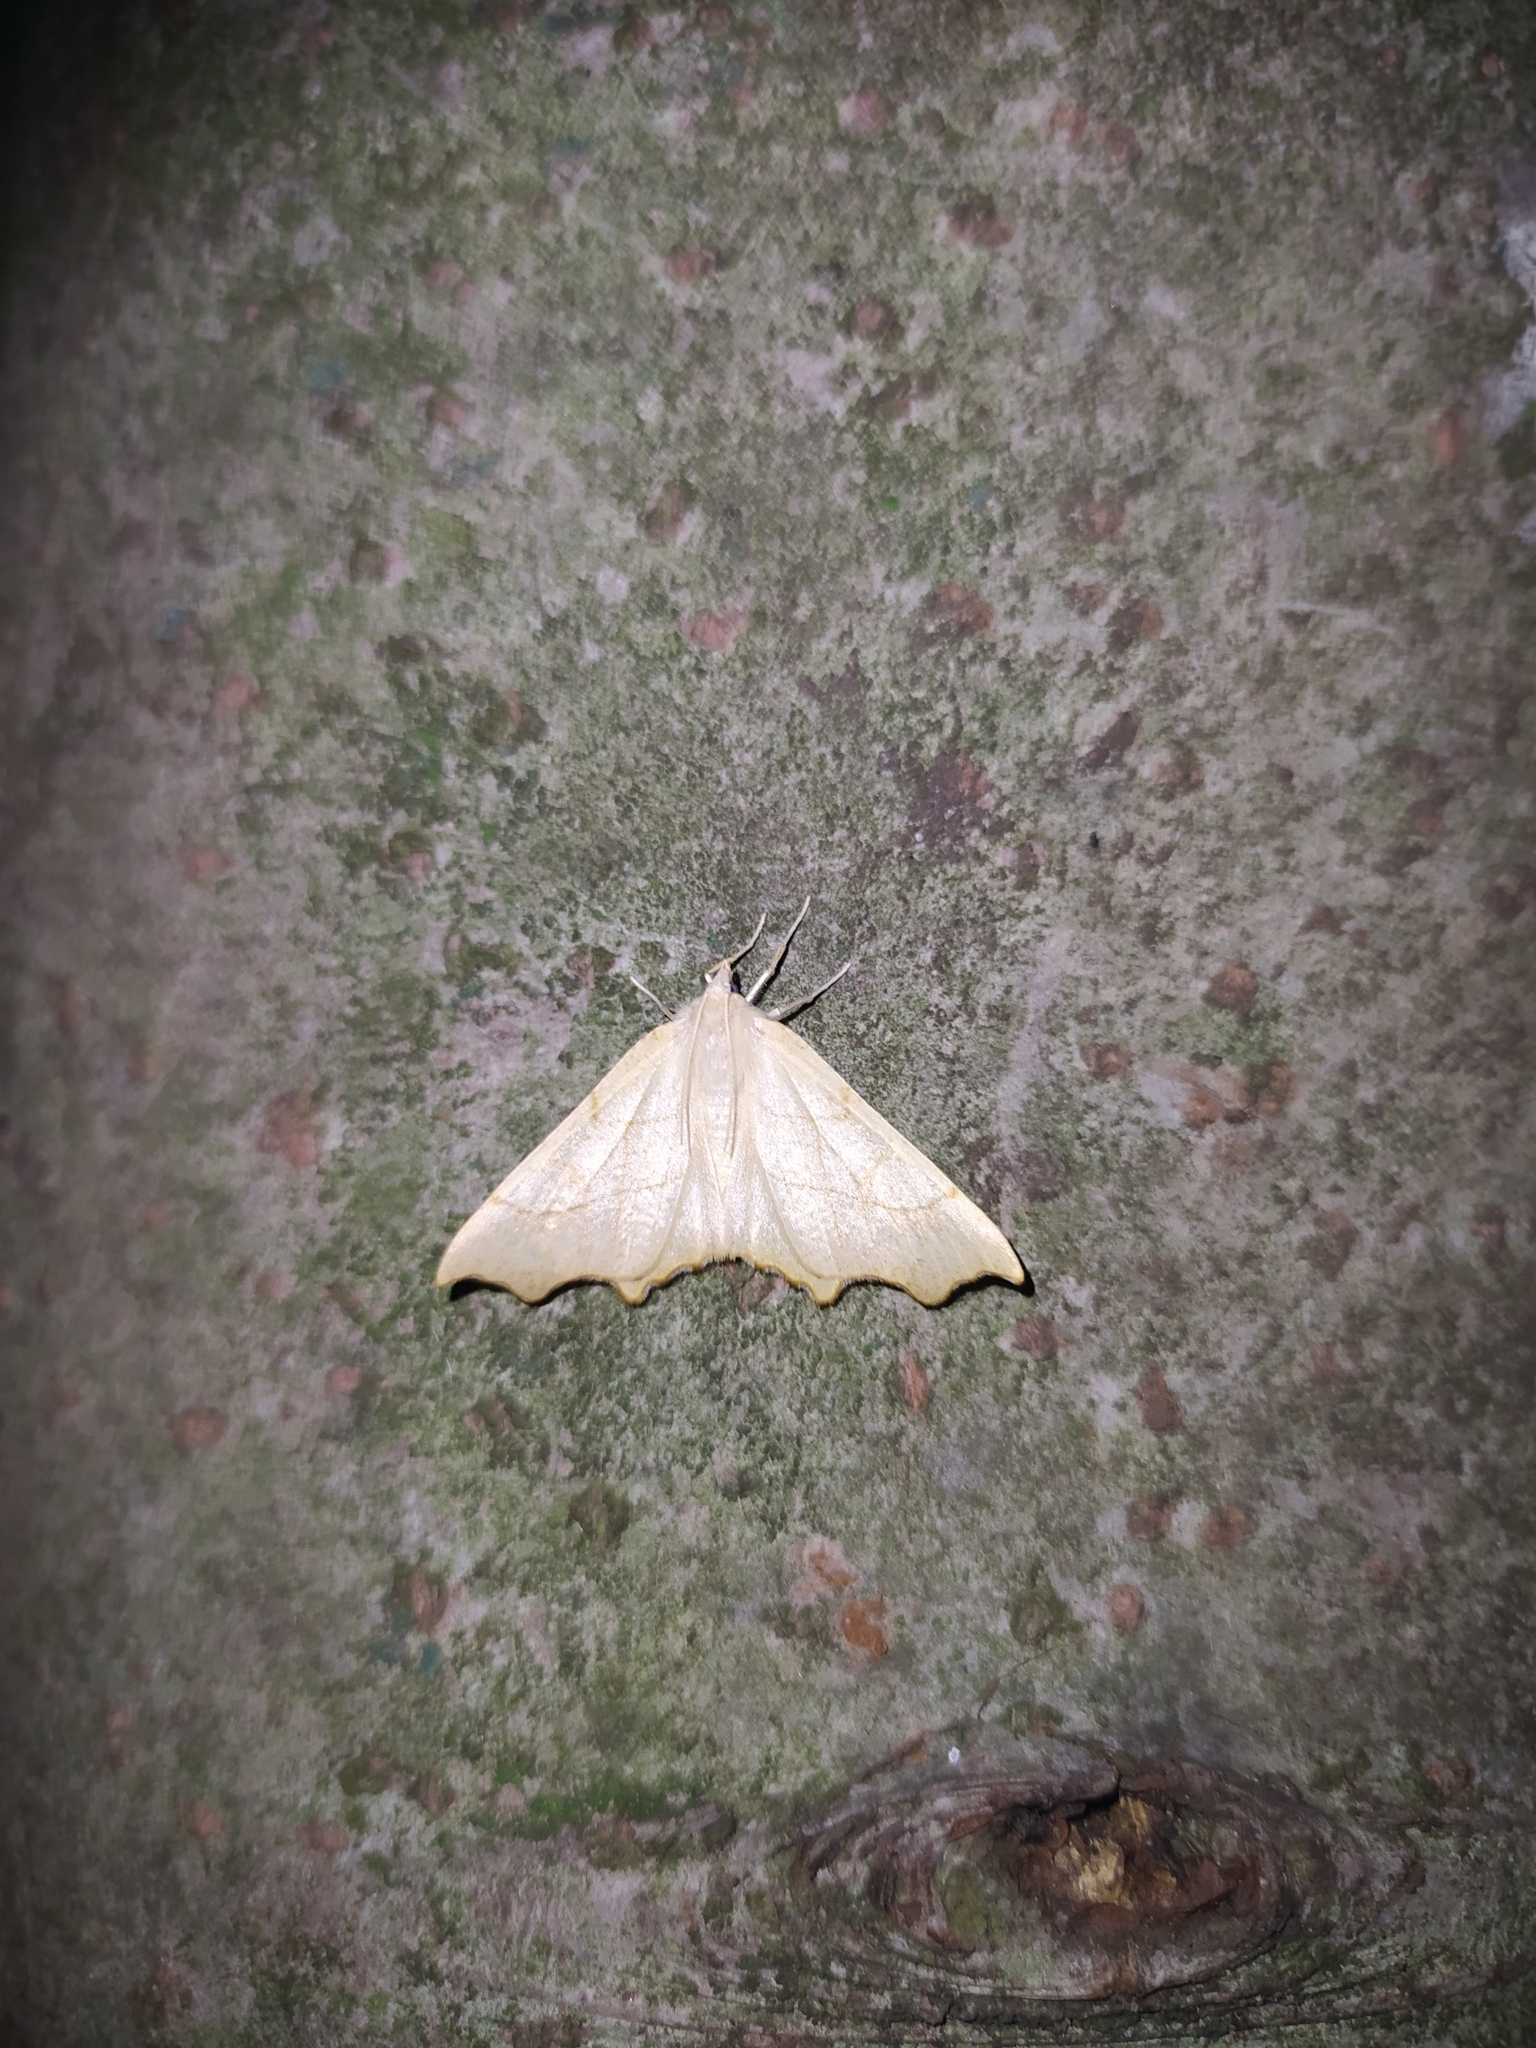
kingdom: Animalia
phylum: Arthropoda
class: Insecta
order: Lepidoptera
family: Geometridae
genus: Ennomos
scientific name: Ennomos quercinaria
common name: August thorn
